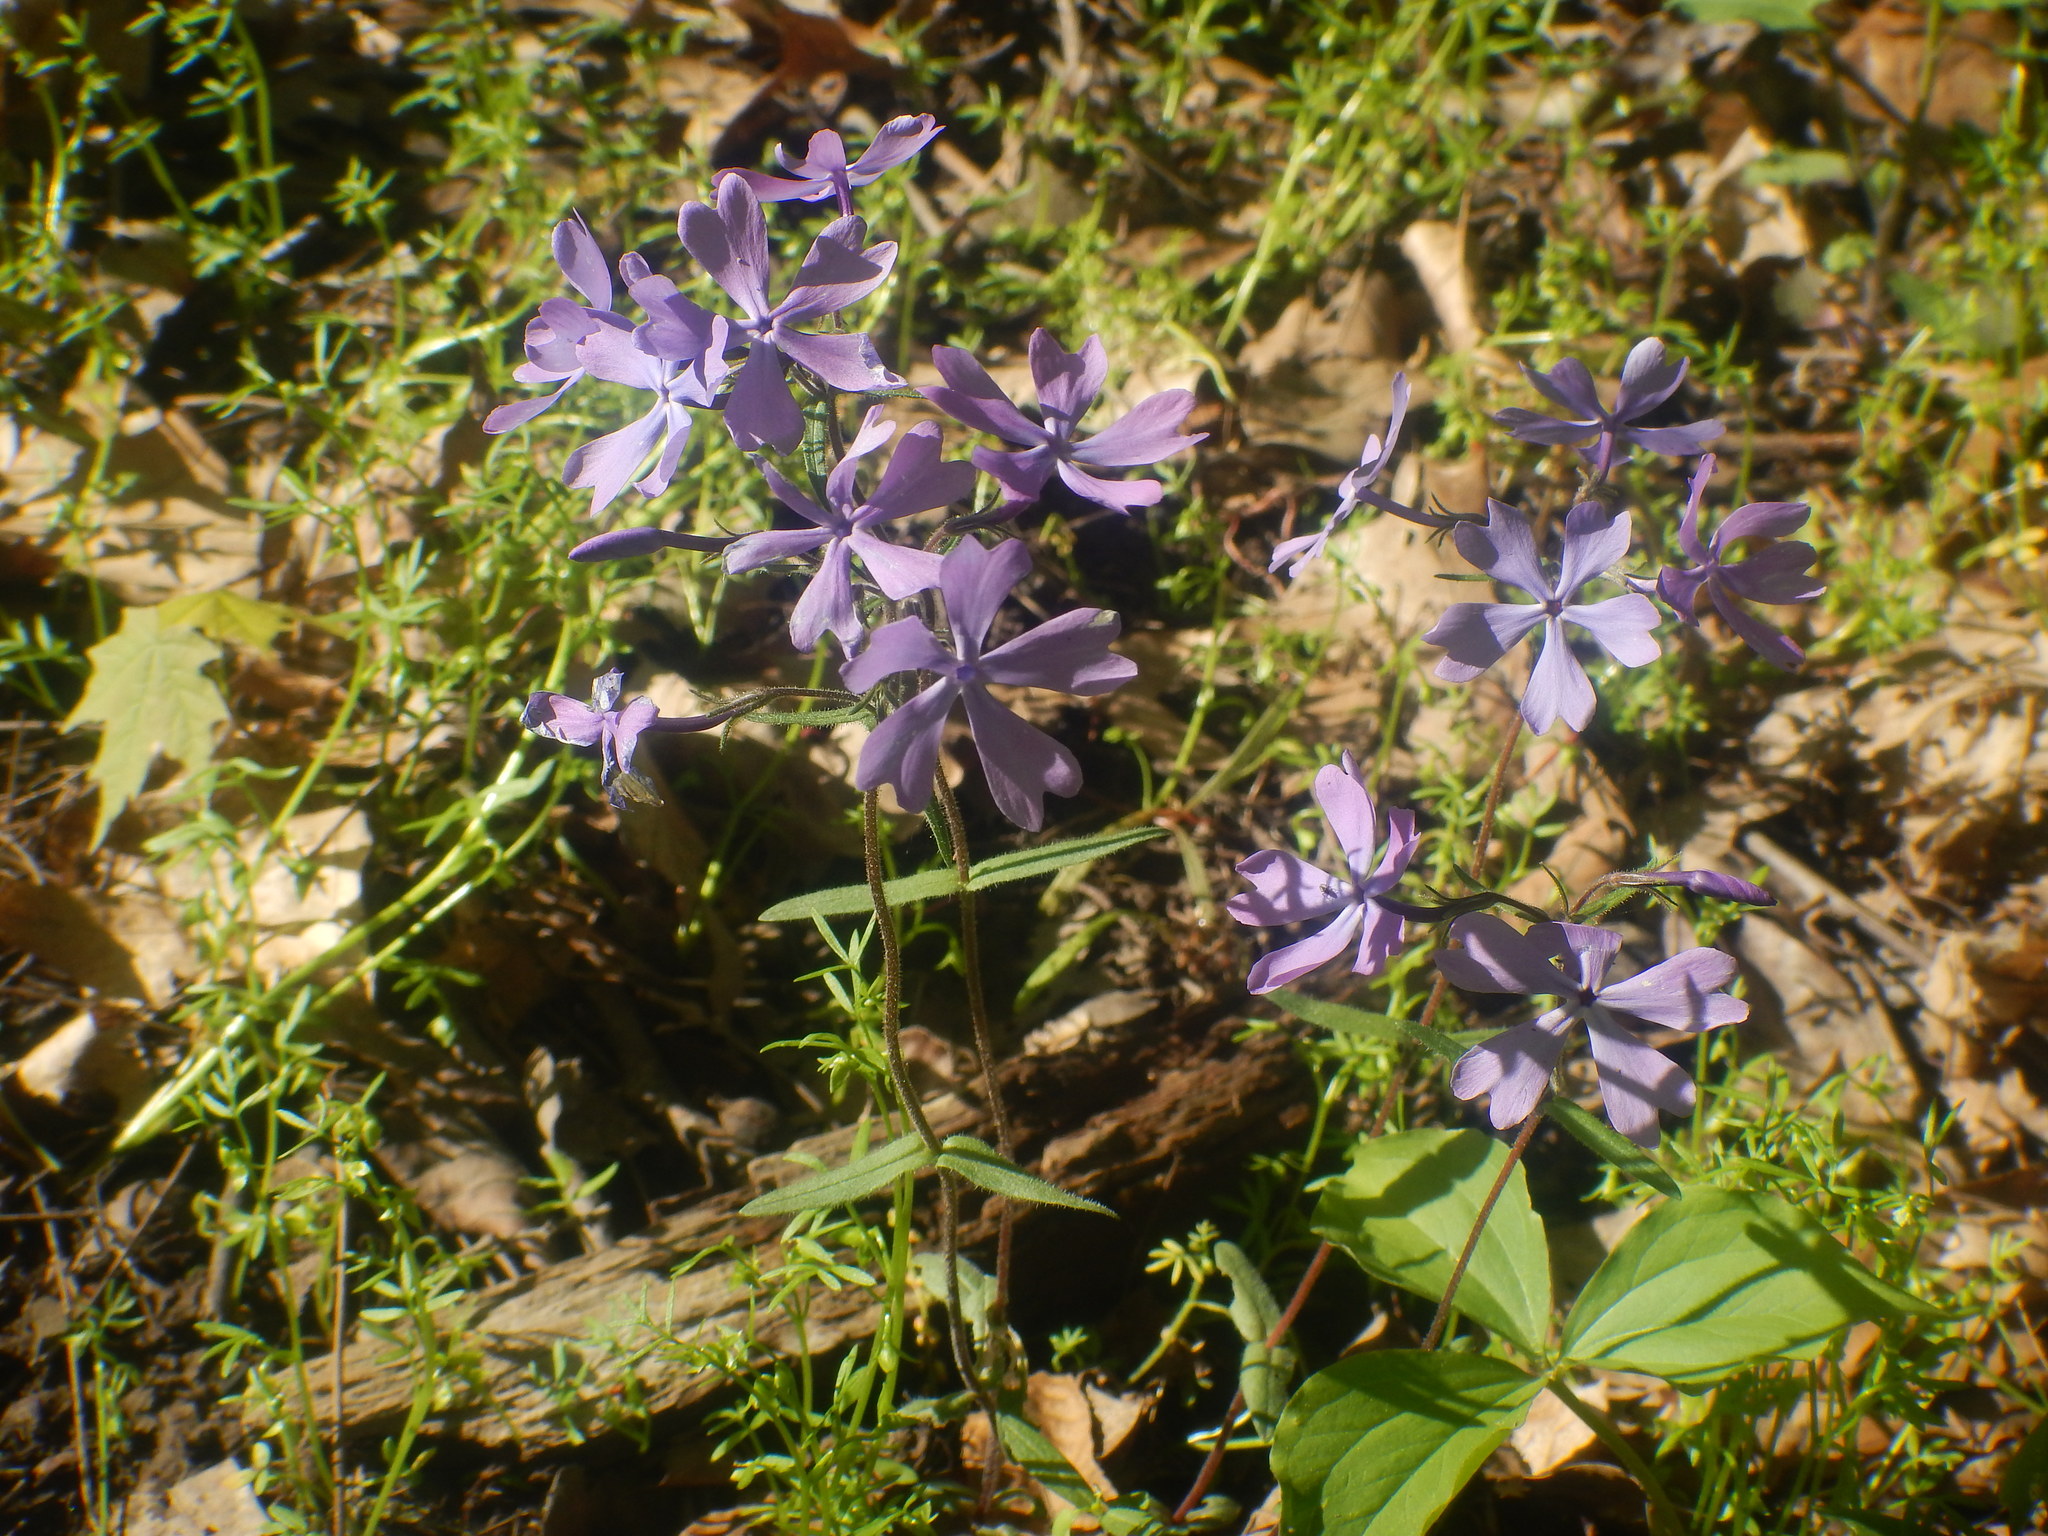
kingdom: Plantae
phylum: Tracheophyta
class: Magnoliopsida
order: Ericales
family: Polemoniaceae
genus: Phlox
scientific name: Phlox divaricata
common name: Blue phlox
